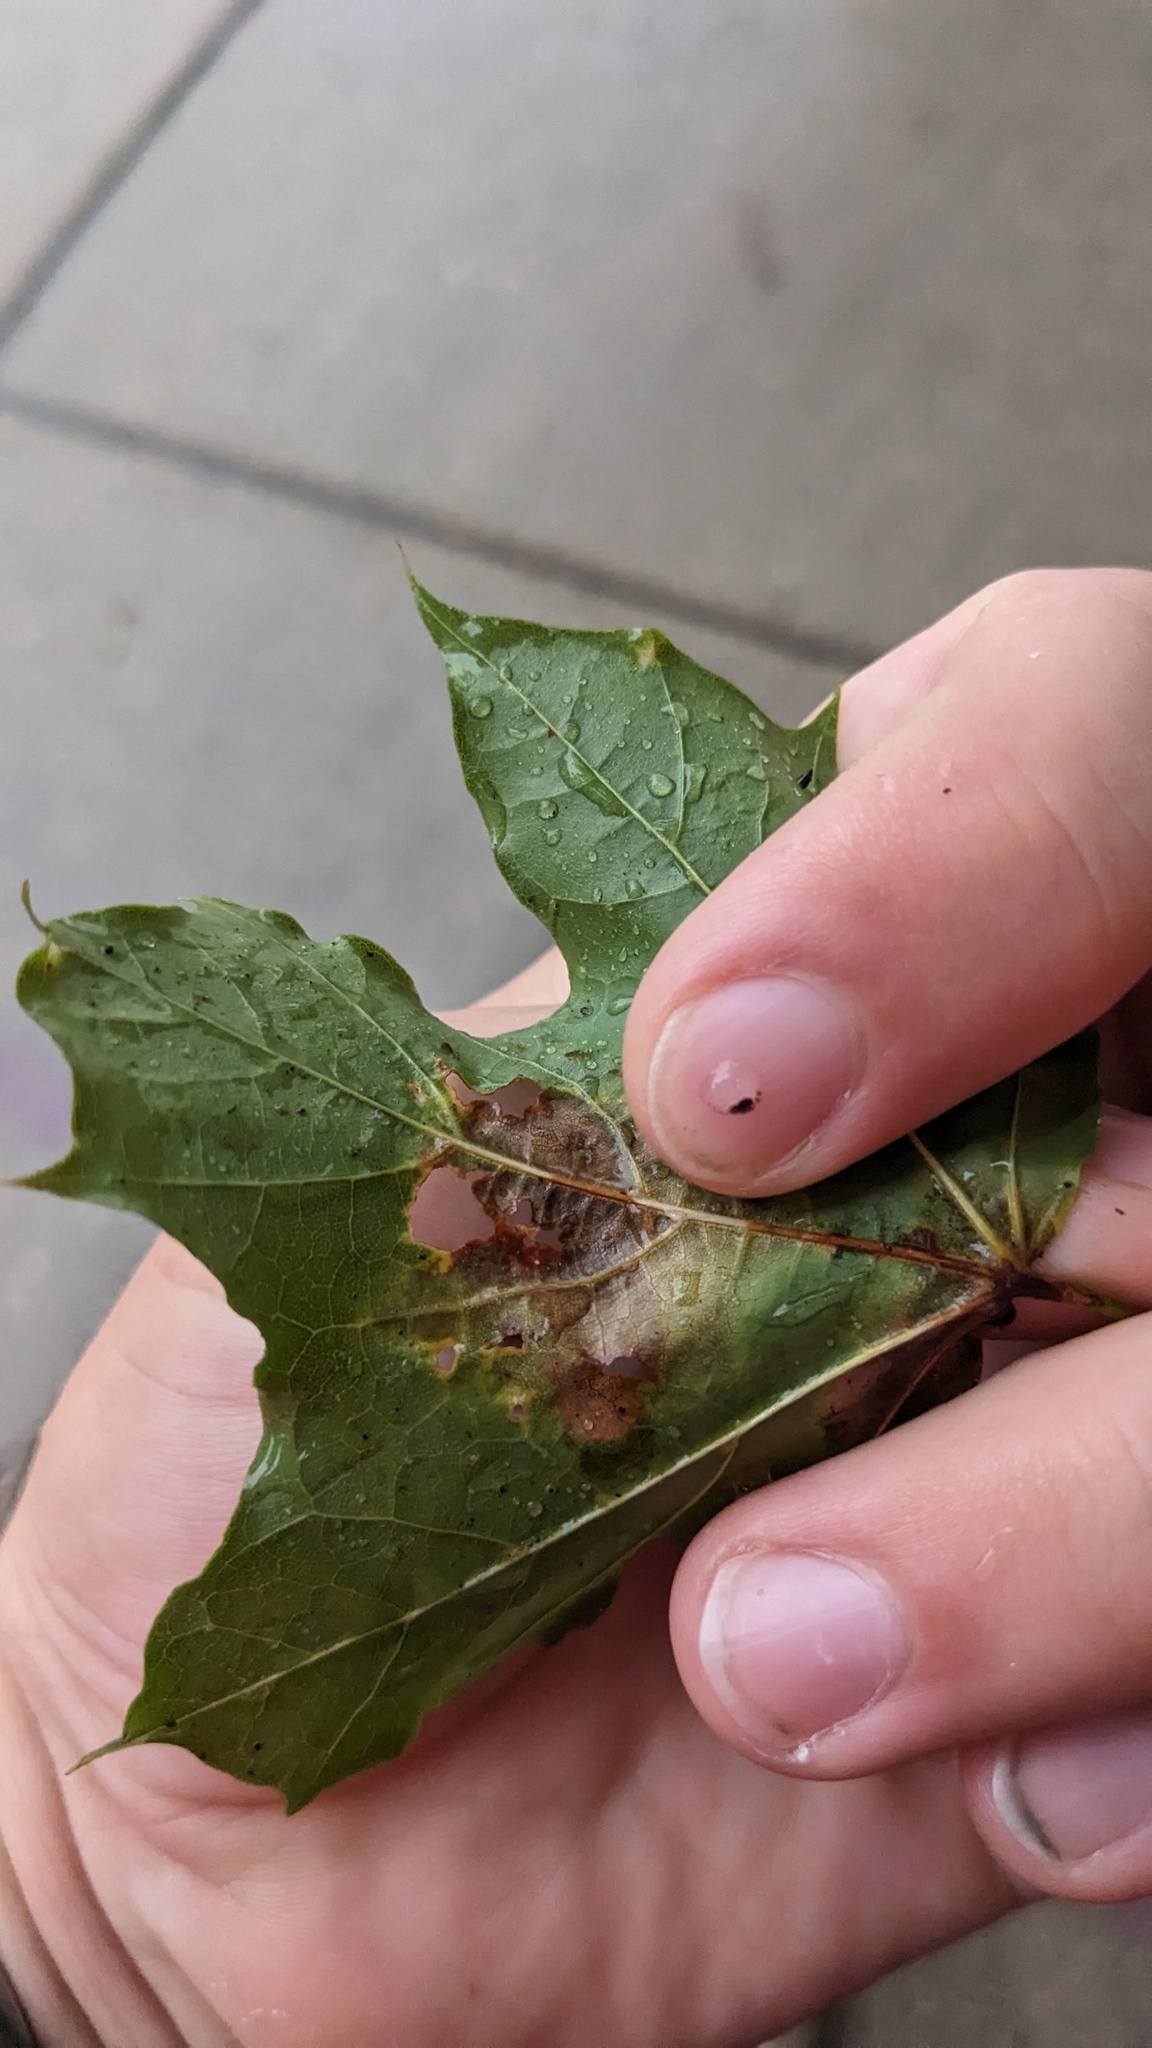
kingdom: Fungi
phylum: Ascomycota
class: Leotiomycetes
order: Rhytismatales
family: Rhytismataceae
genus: Rhytisma
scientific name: Rhytisma acerinum
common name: European tar spot
